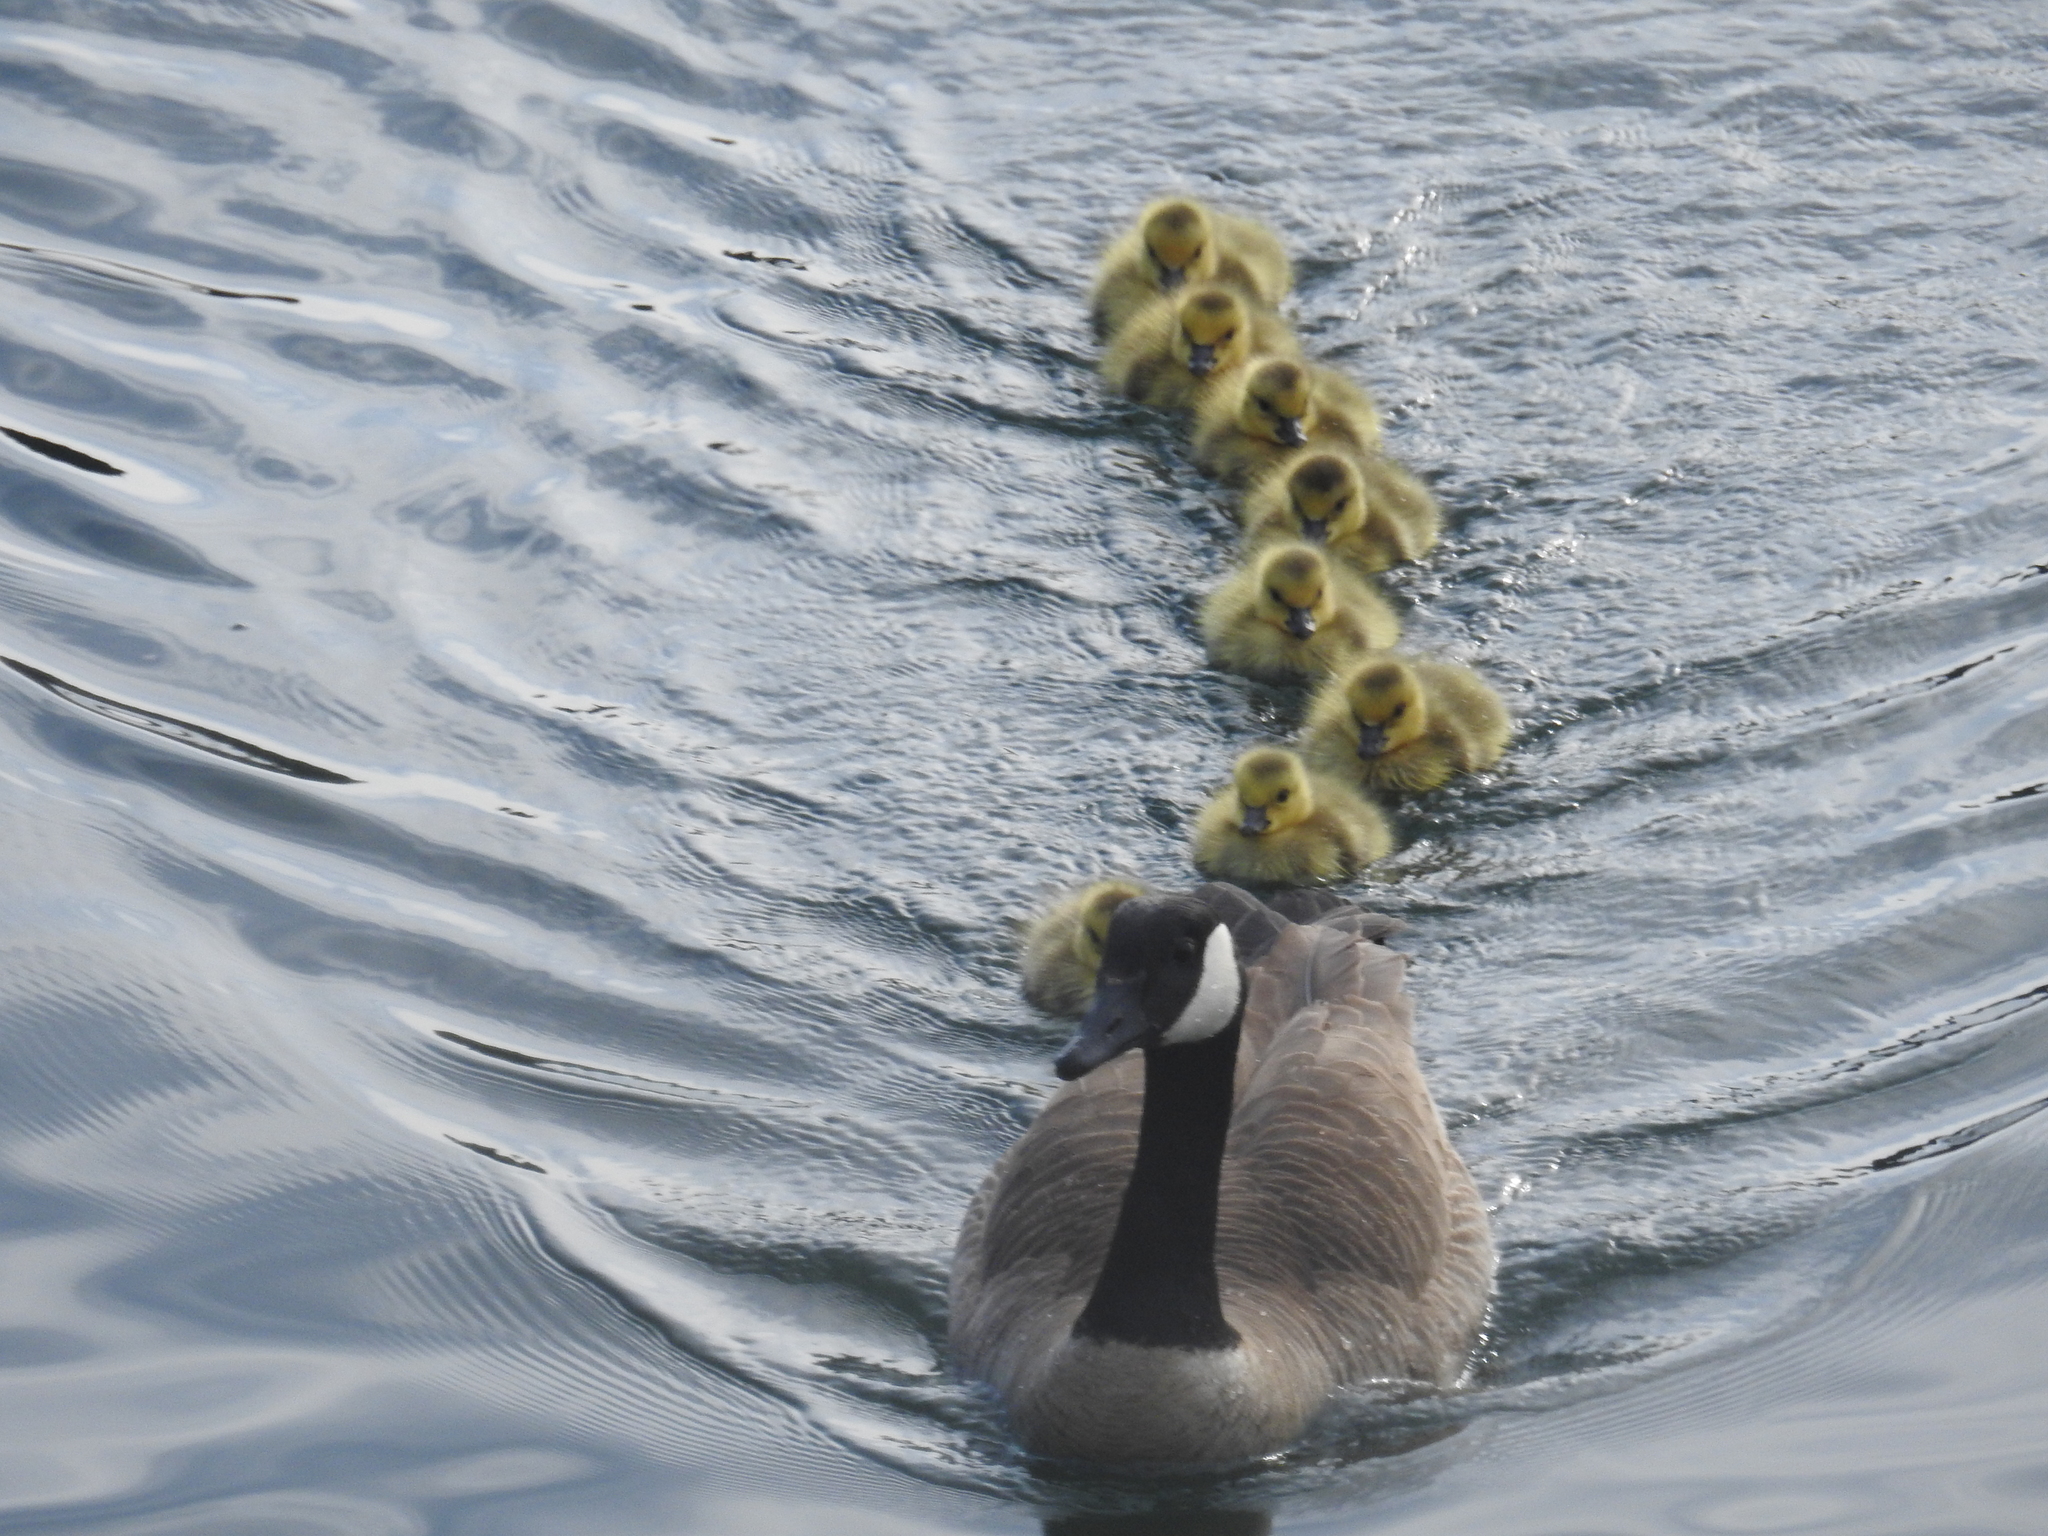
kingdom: Animalia
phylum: Chordata
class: Aves
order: Anseriformes
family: Anatidae
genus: Branta
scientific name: Branta canadensis
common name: Canada goose
